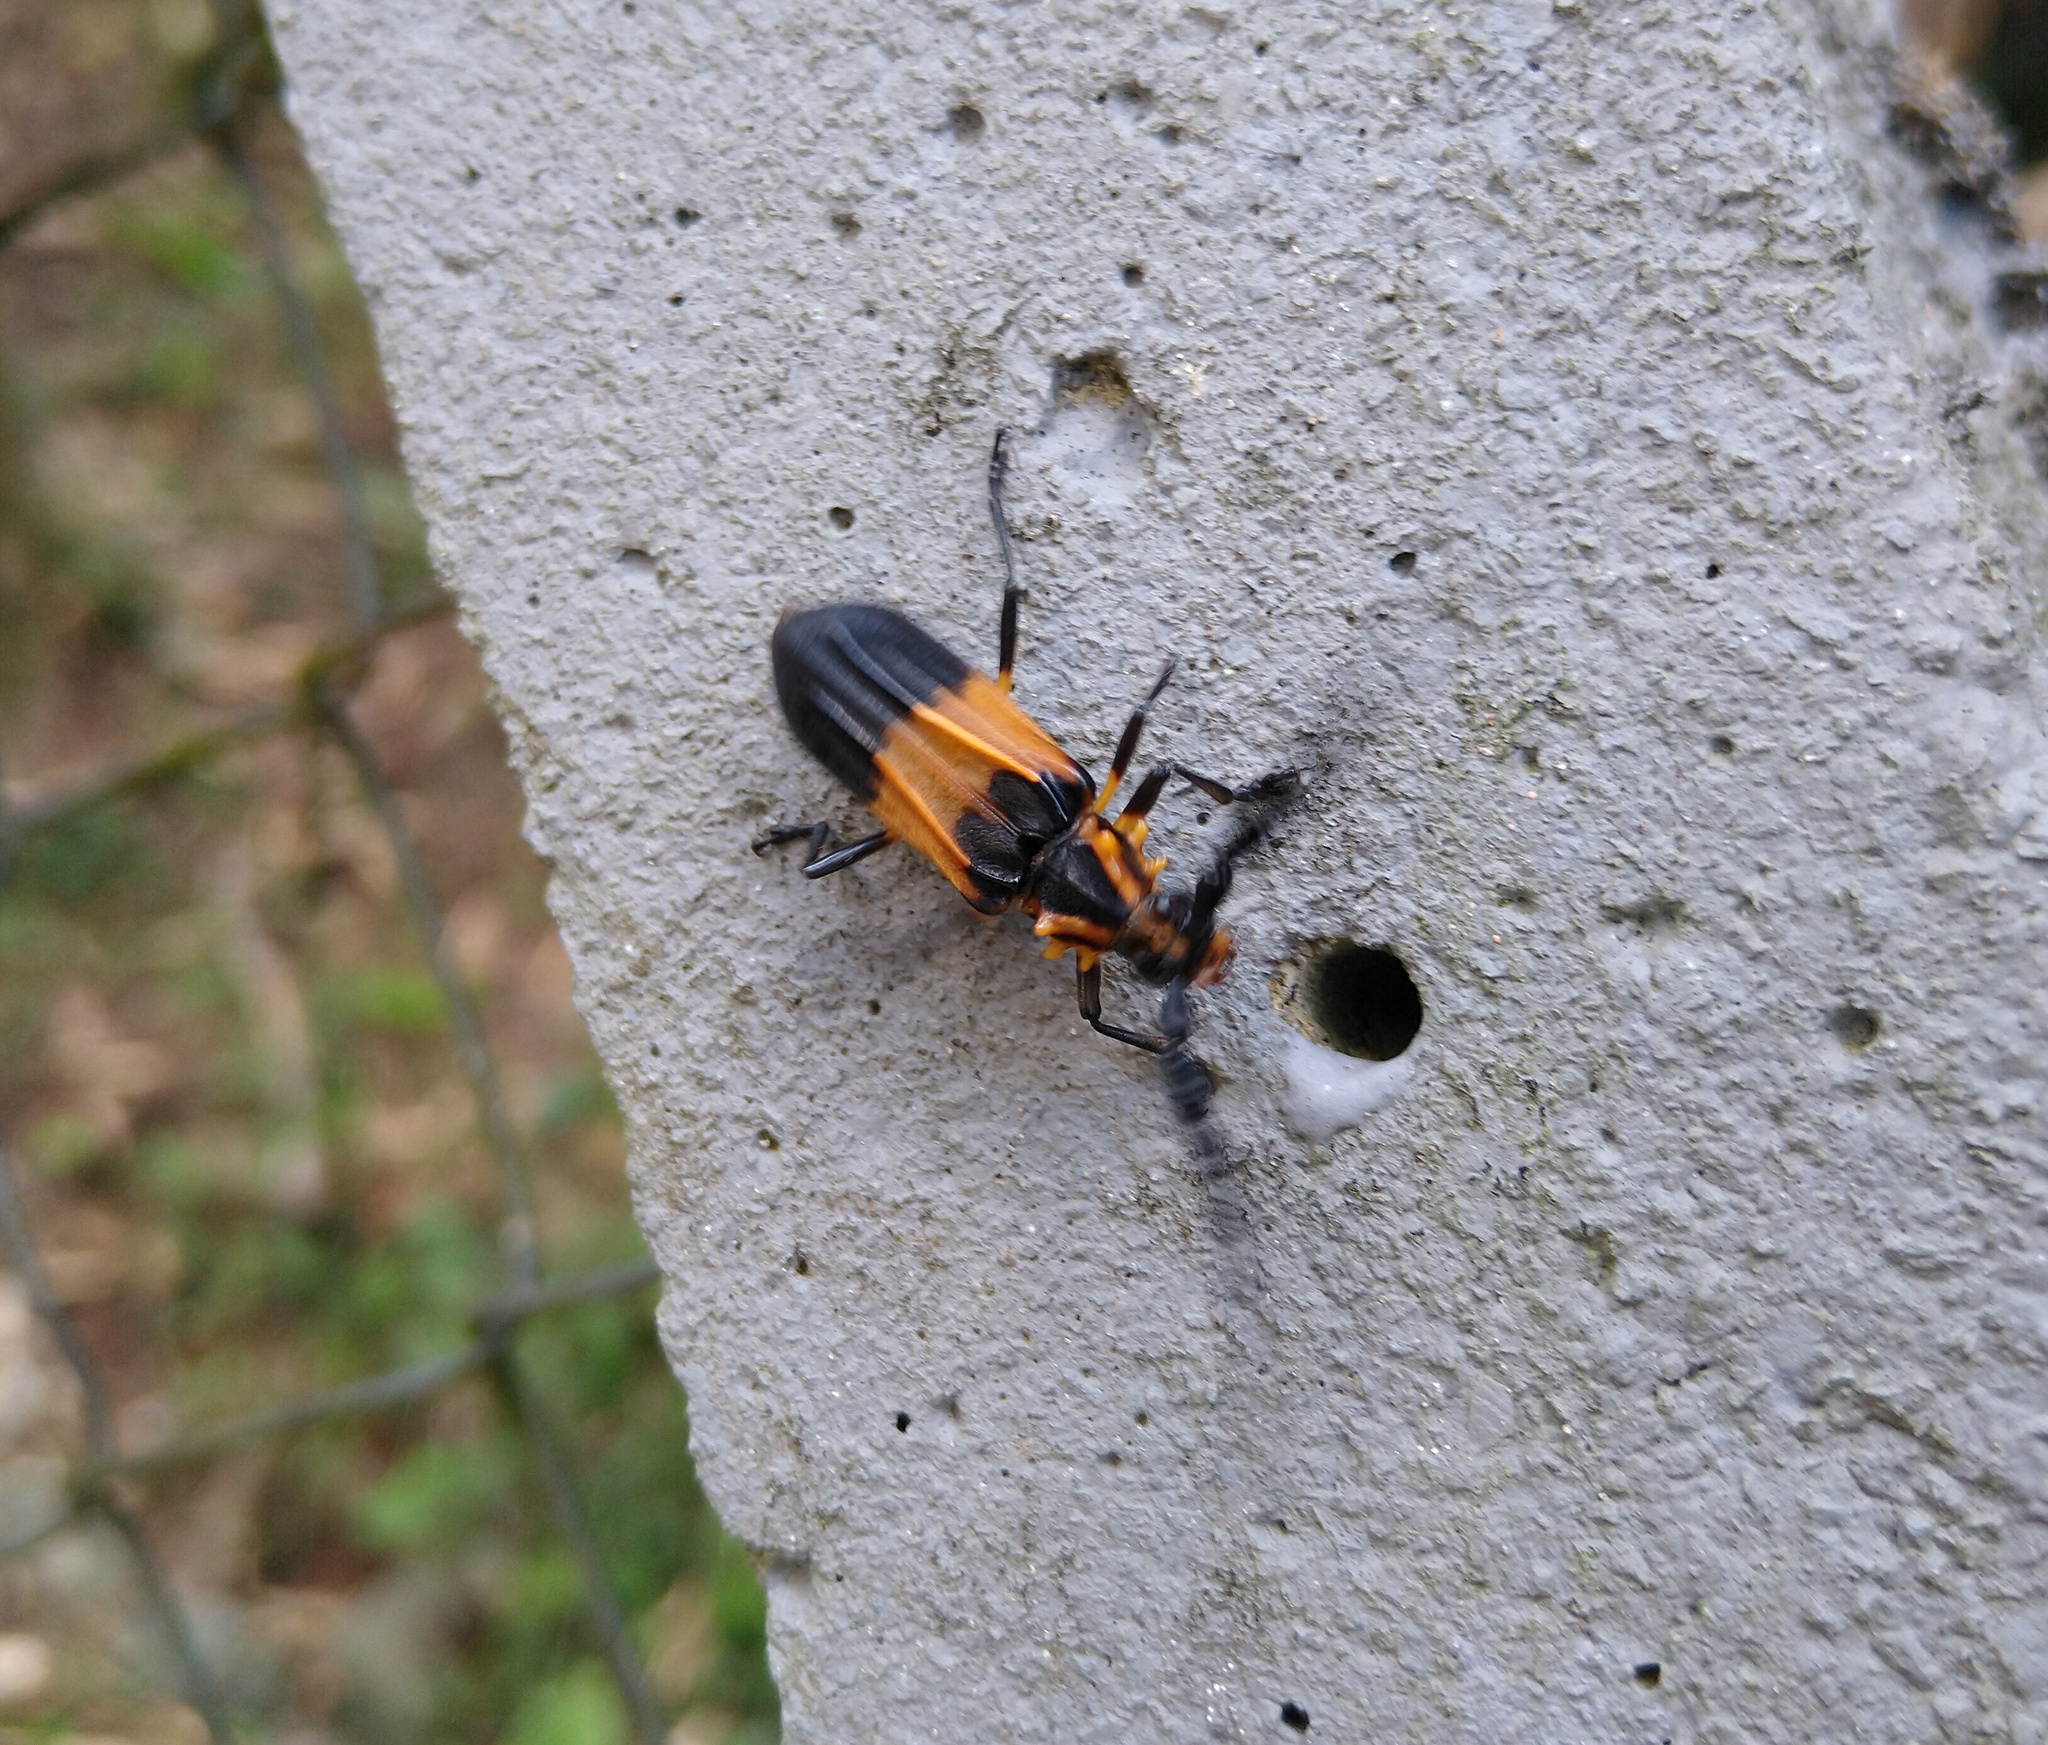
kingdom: Animalia
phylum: Arthropoda
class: Insecta
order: Coleoptera
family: Cerambycidae
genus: Batus
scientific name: Batus hirticornis
